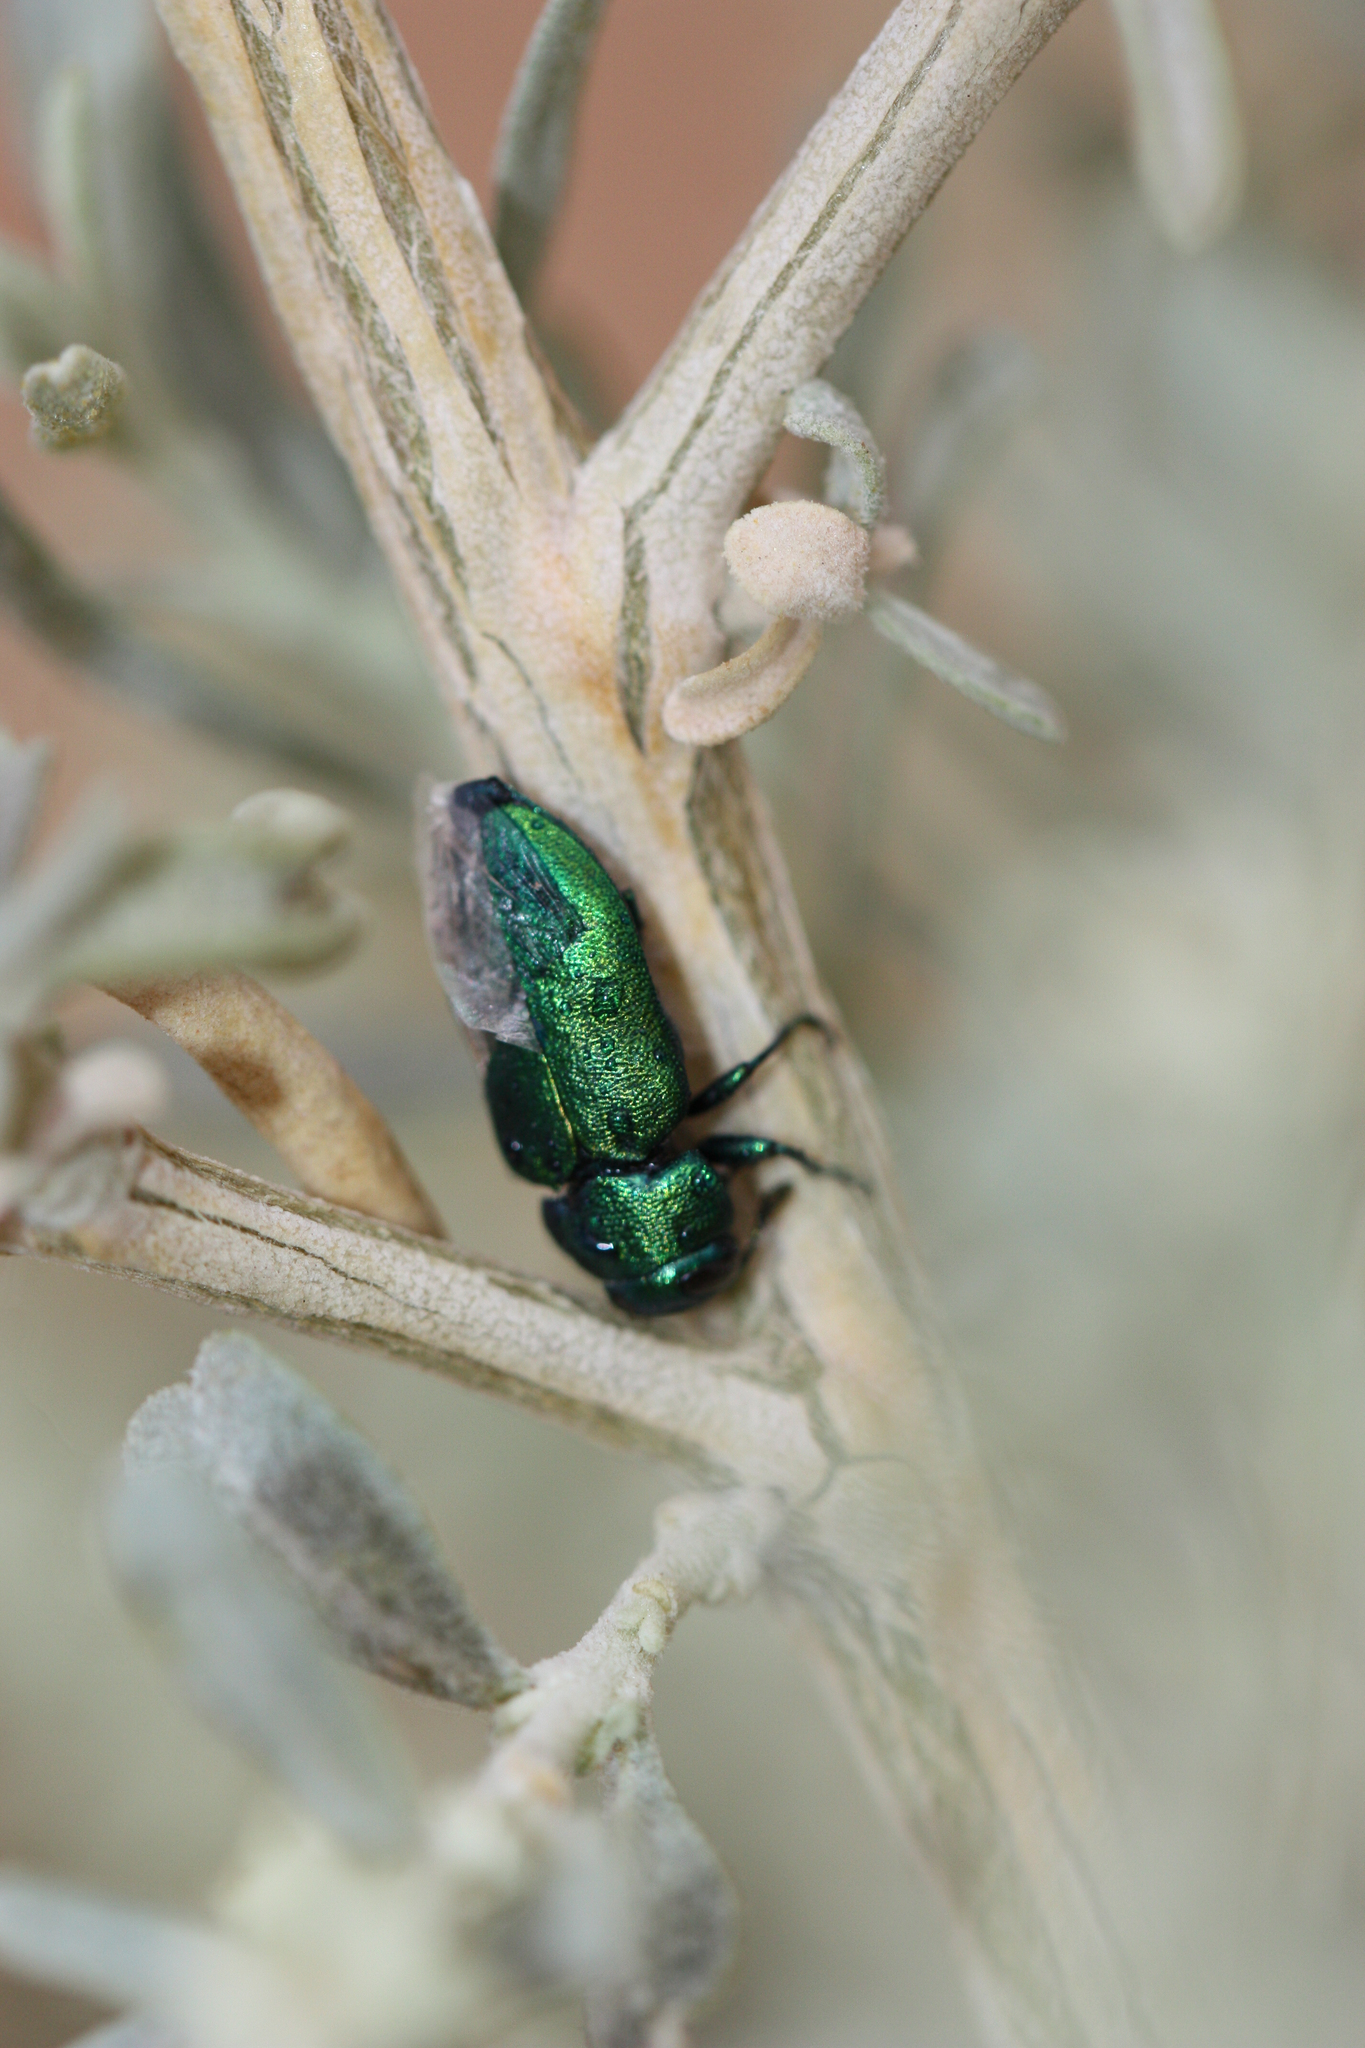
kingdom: Animalia
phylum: Arthropoda
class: Insecta
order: Coleoptera
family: Buprestidae
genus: Knowltonia
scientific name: Knowltonia alleni
